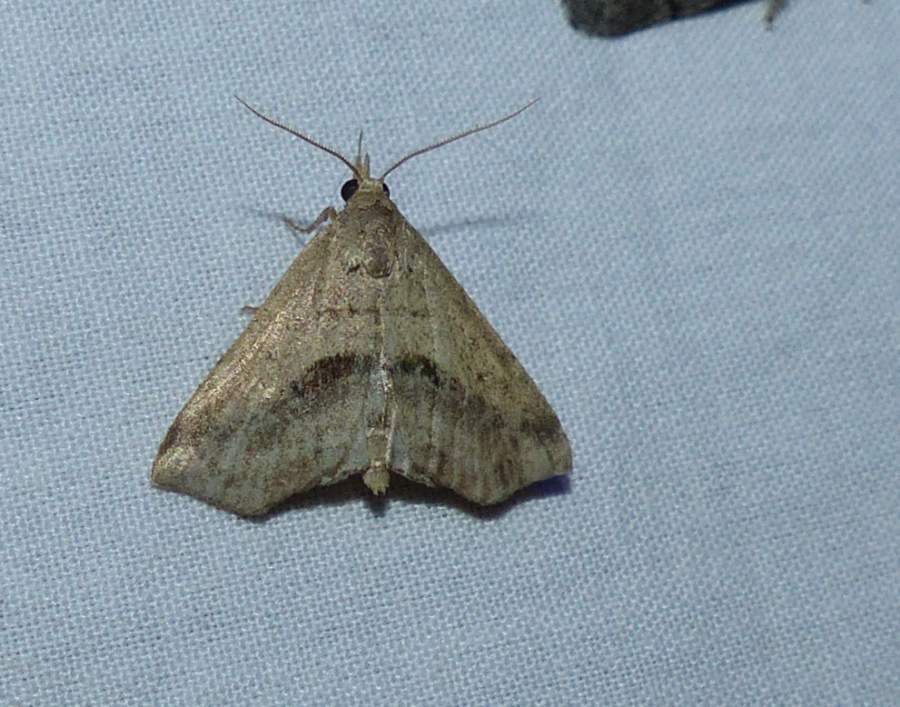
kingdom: Animalia
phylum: Arthropoda
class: Insecta
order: Lepidoptera
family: Erebidae
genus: Spargaloma
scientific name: Spargaloma perditalis
